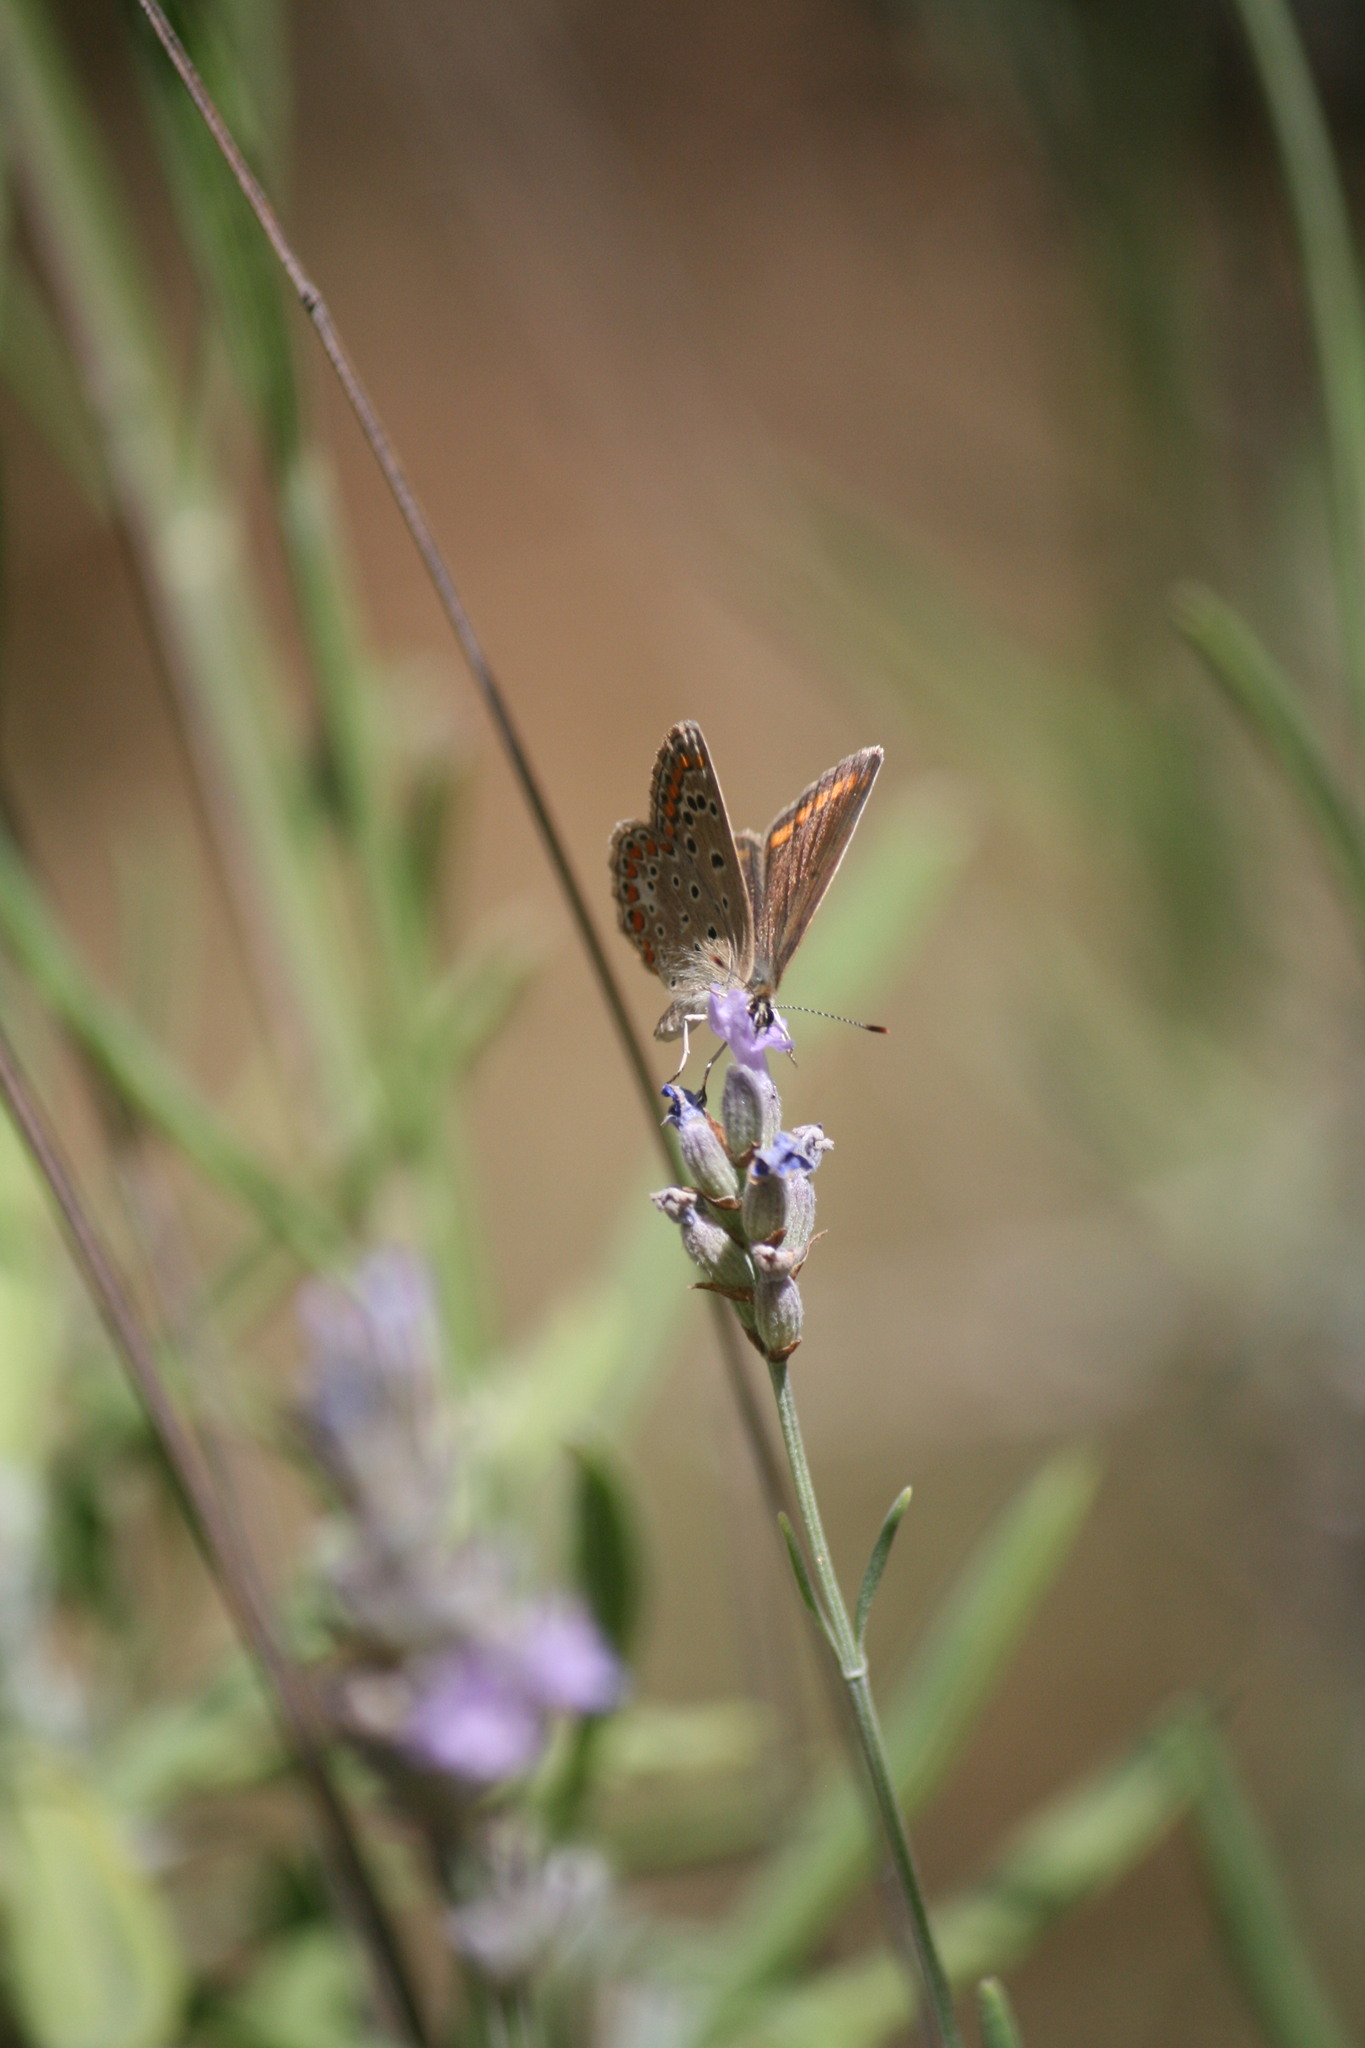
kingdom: Animalia
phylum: Arthropoda
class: Insecta
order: Lepidoptera
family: Lycaenidae
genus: Polyommatus
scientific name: Polyommatus celina
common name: Austaut's blue
